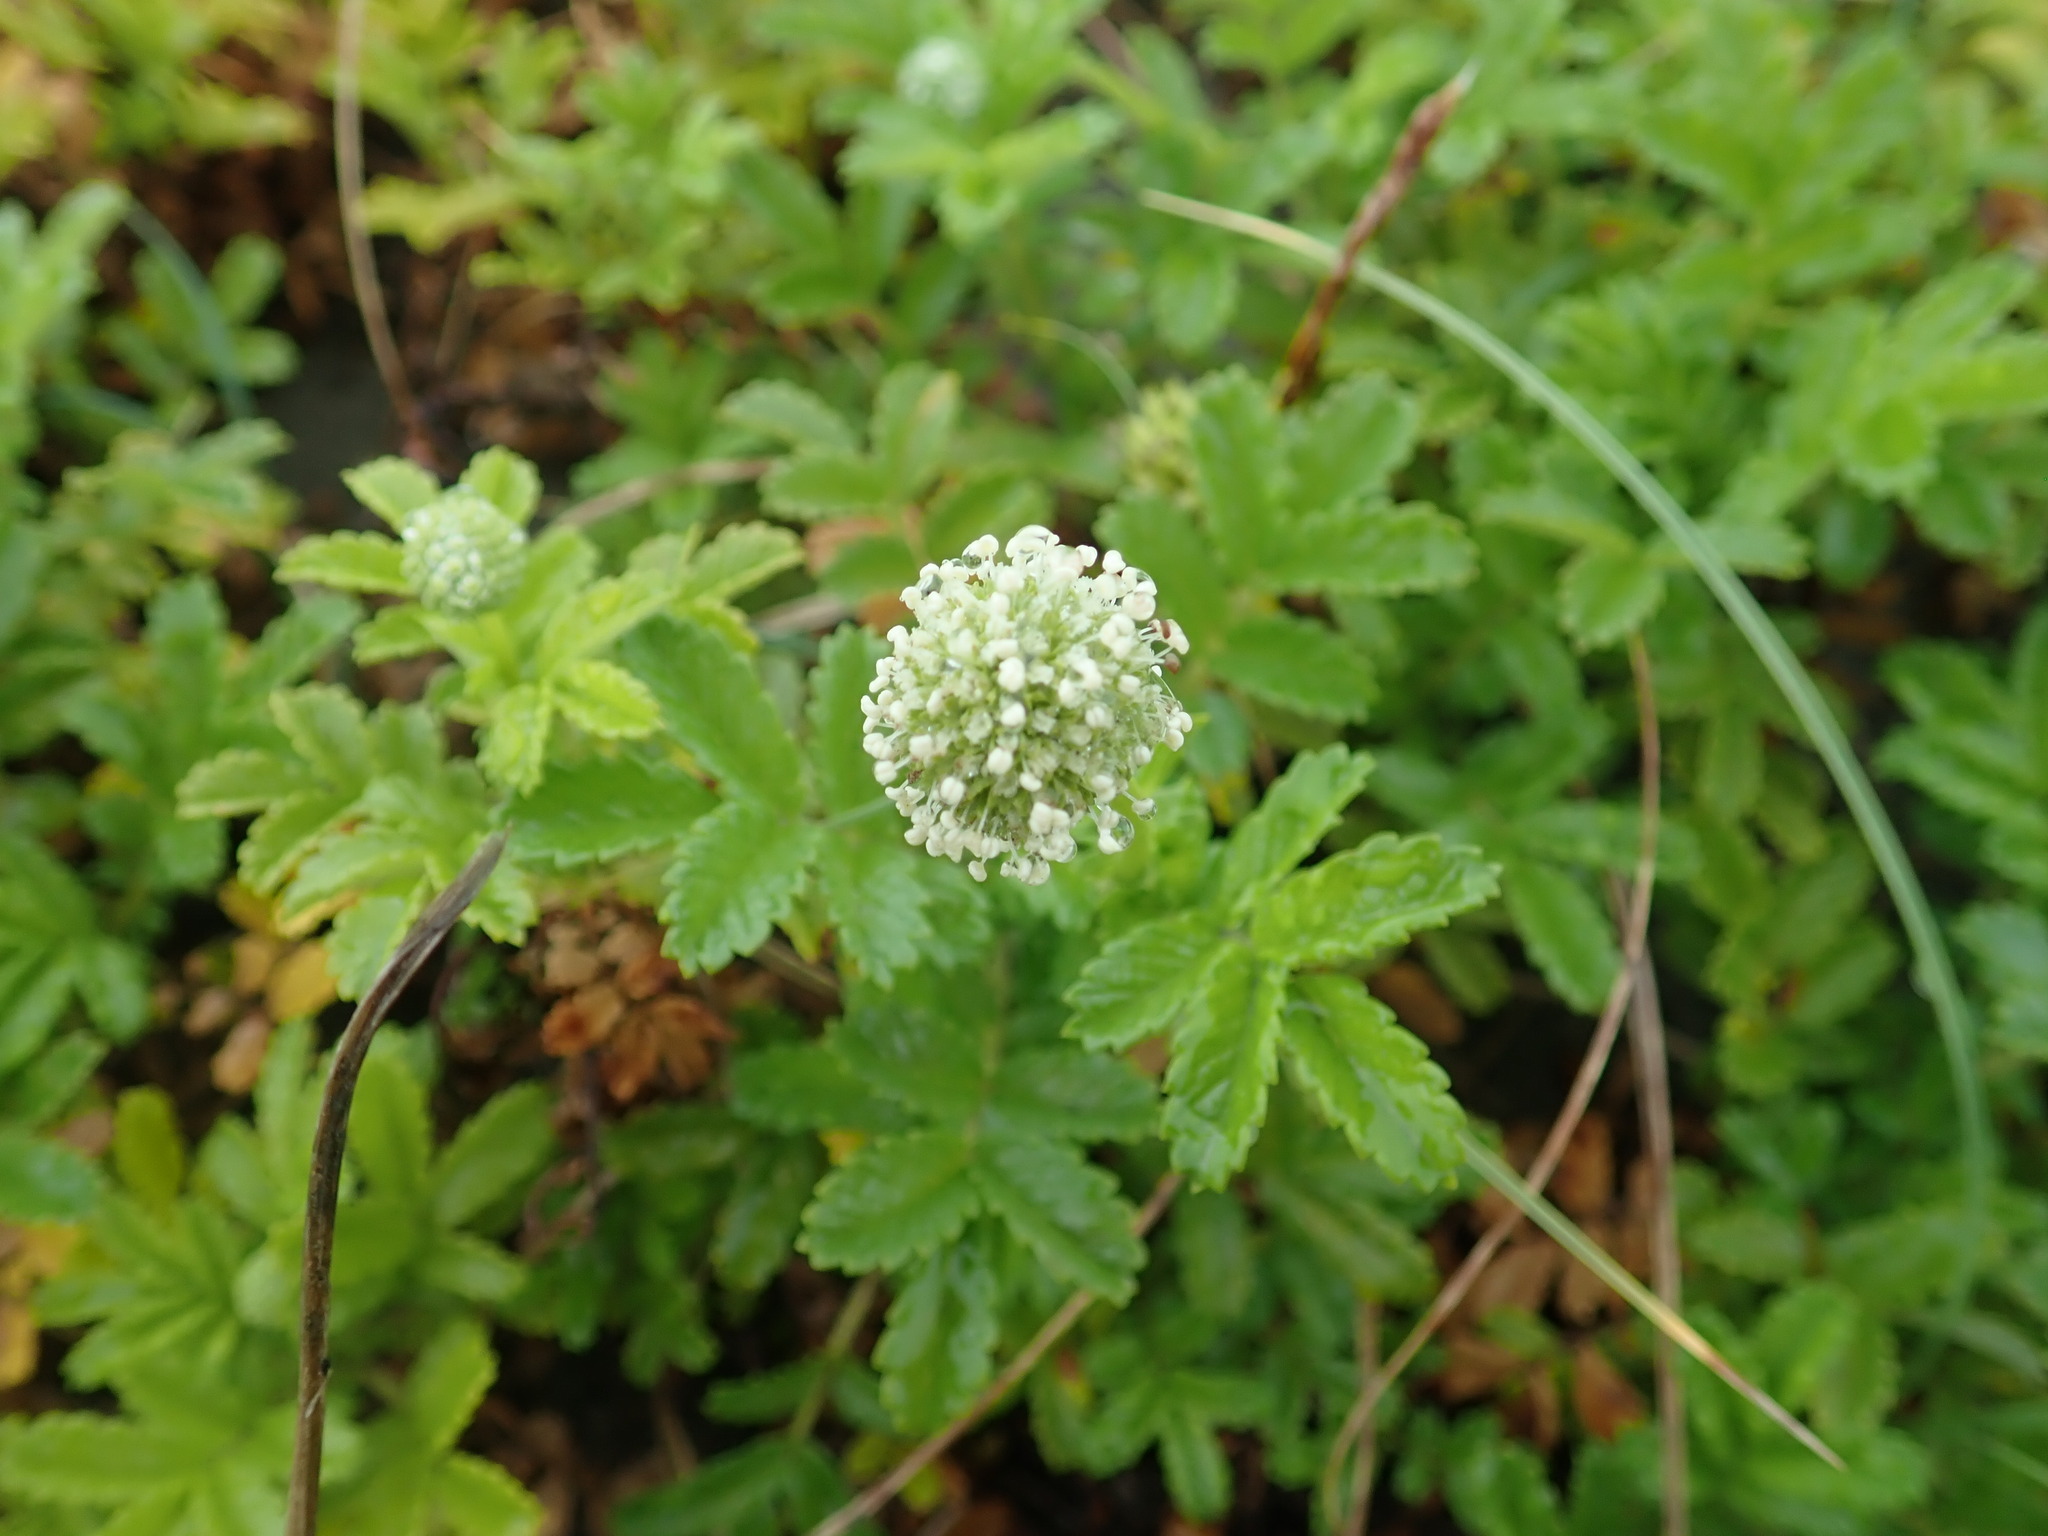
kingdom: Plantae
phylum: Tracheophyta
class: Magnoliopsida
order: Rosales
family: Rosaceae
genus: Acaena
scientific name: Acaena novae-zelandiae
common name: Pirri-pirri-bur
